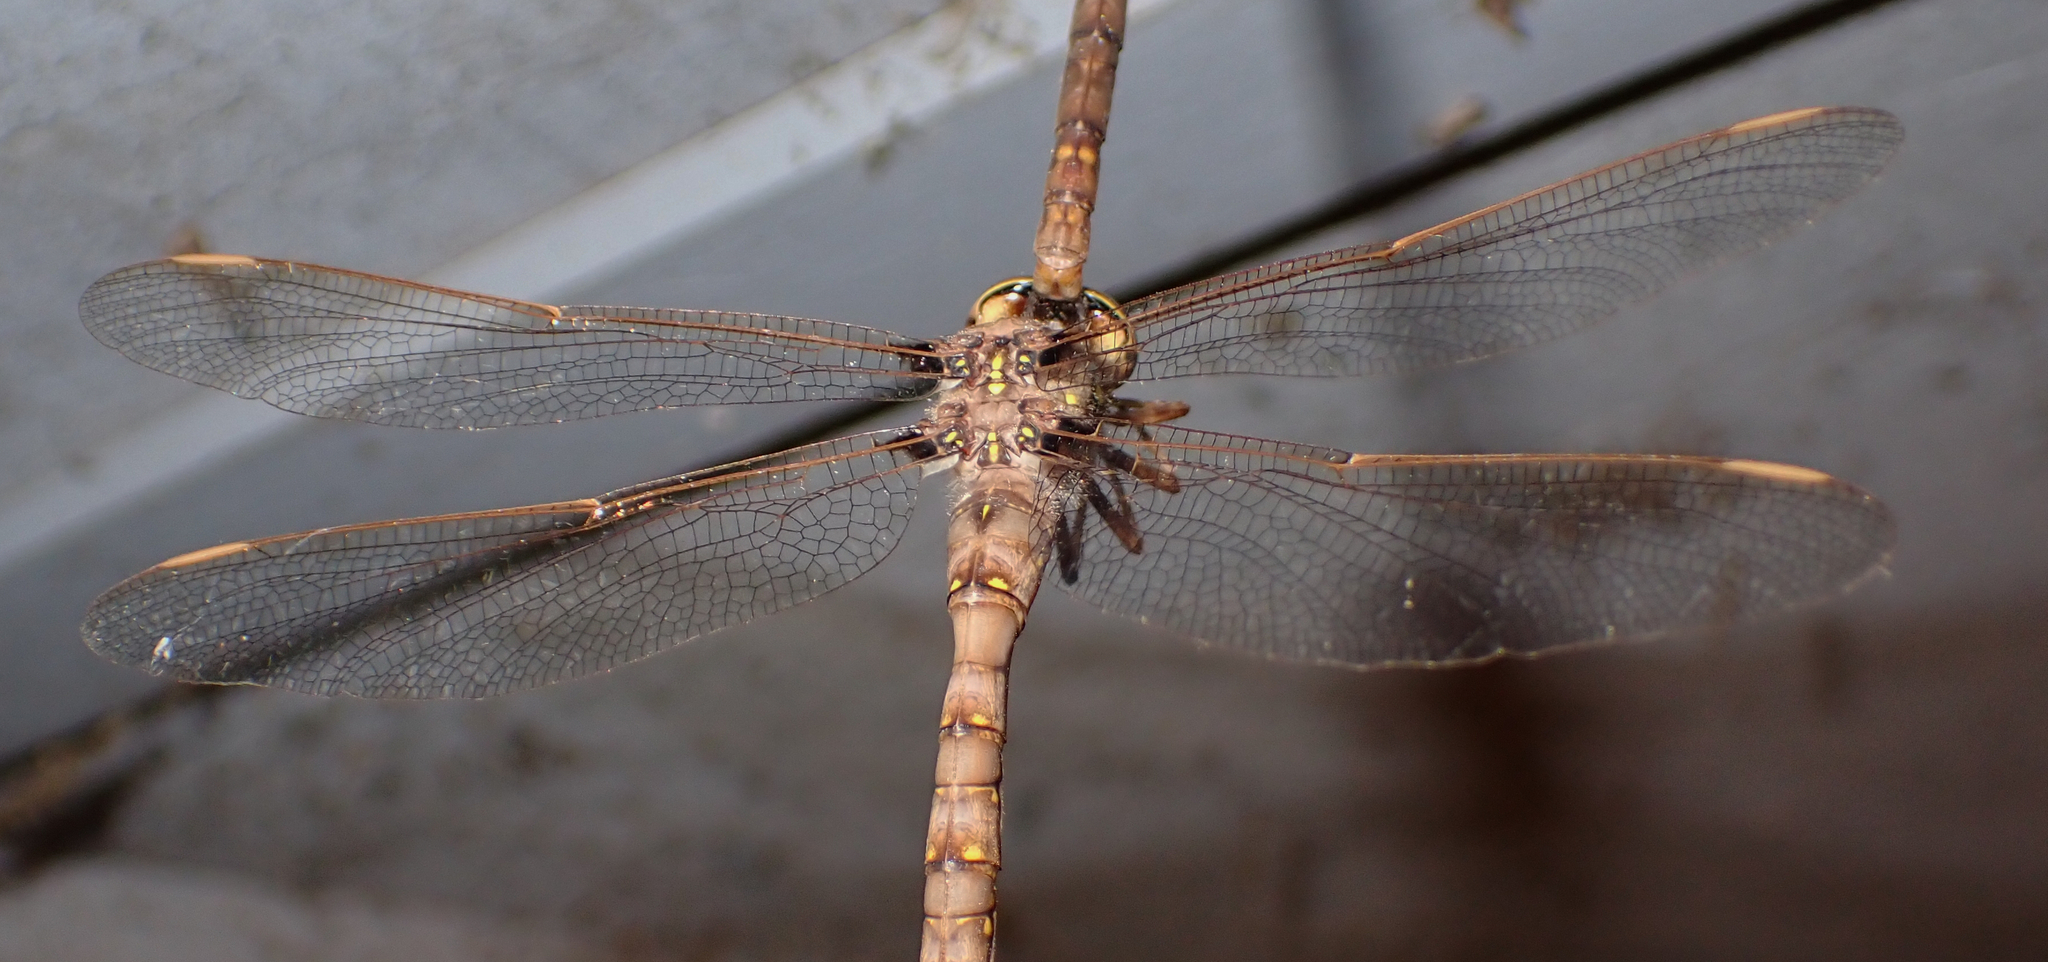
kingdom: Animalia
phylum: Arthropoda
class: Insecta
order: Odonata
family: Aeshnidae
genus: Boyeria
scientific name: Boyeria vinosa
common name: Fawn darner
